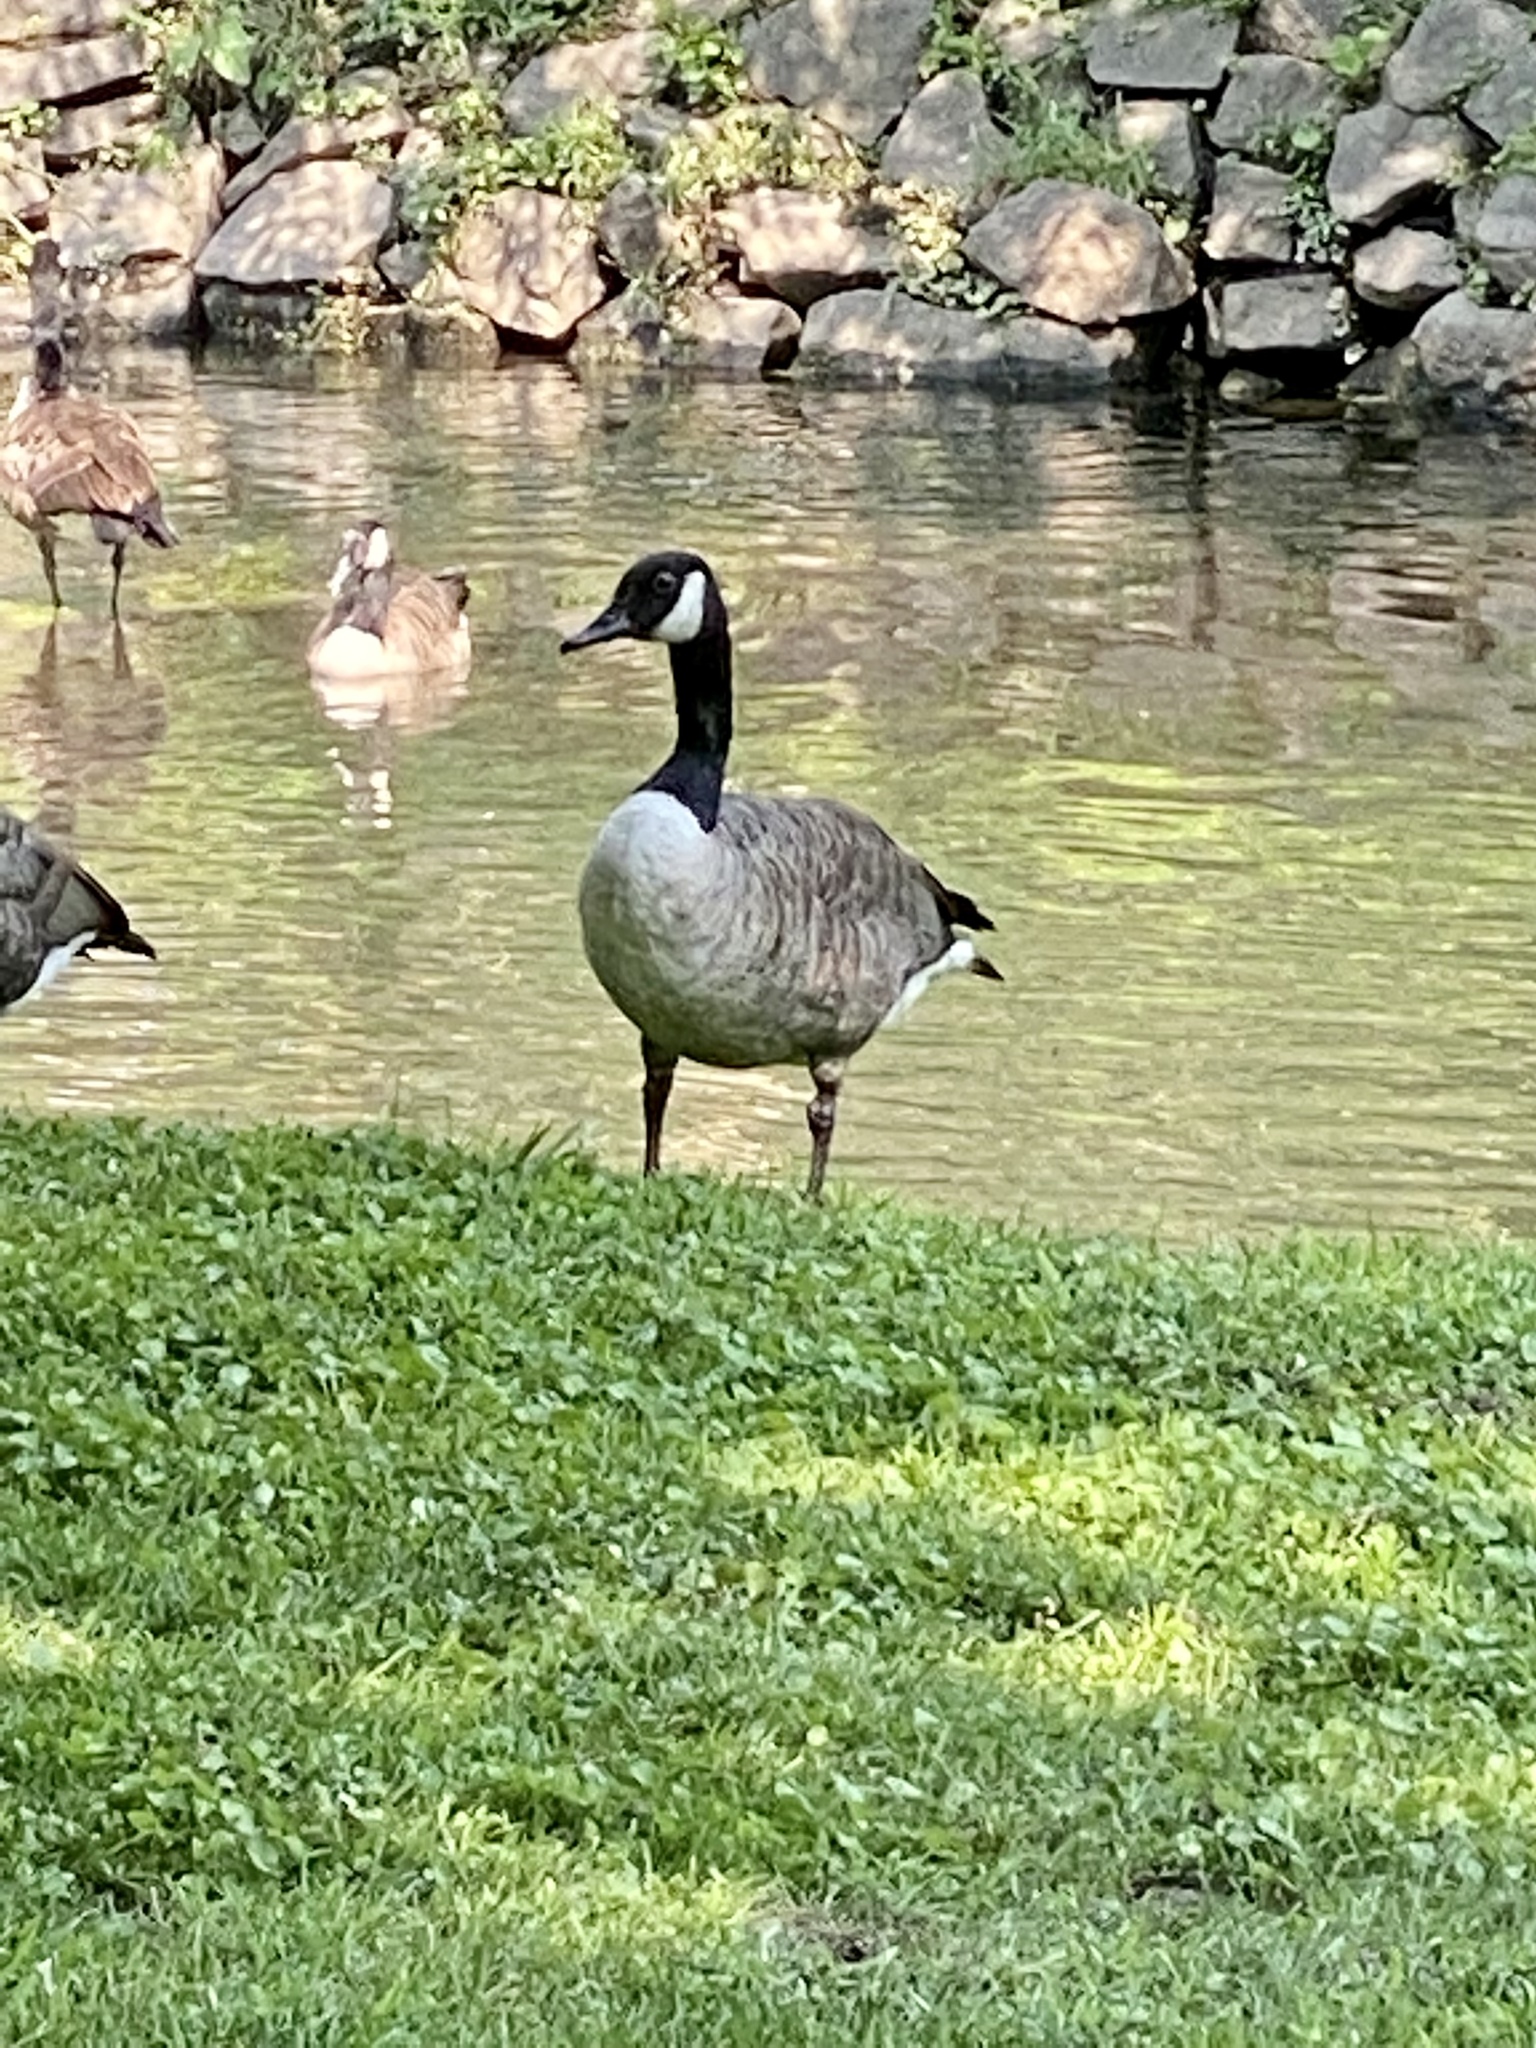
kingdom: Animalia
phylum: Chordata
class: Aves
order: Anseriformes
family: Anatidae
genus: Branta
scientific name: Branta canadensis
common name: Canada goose
